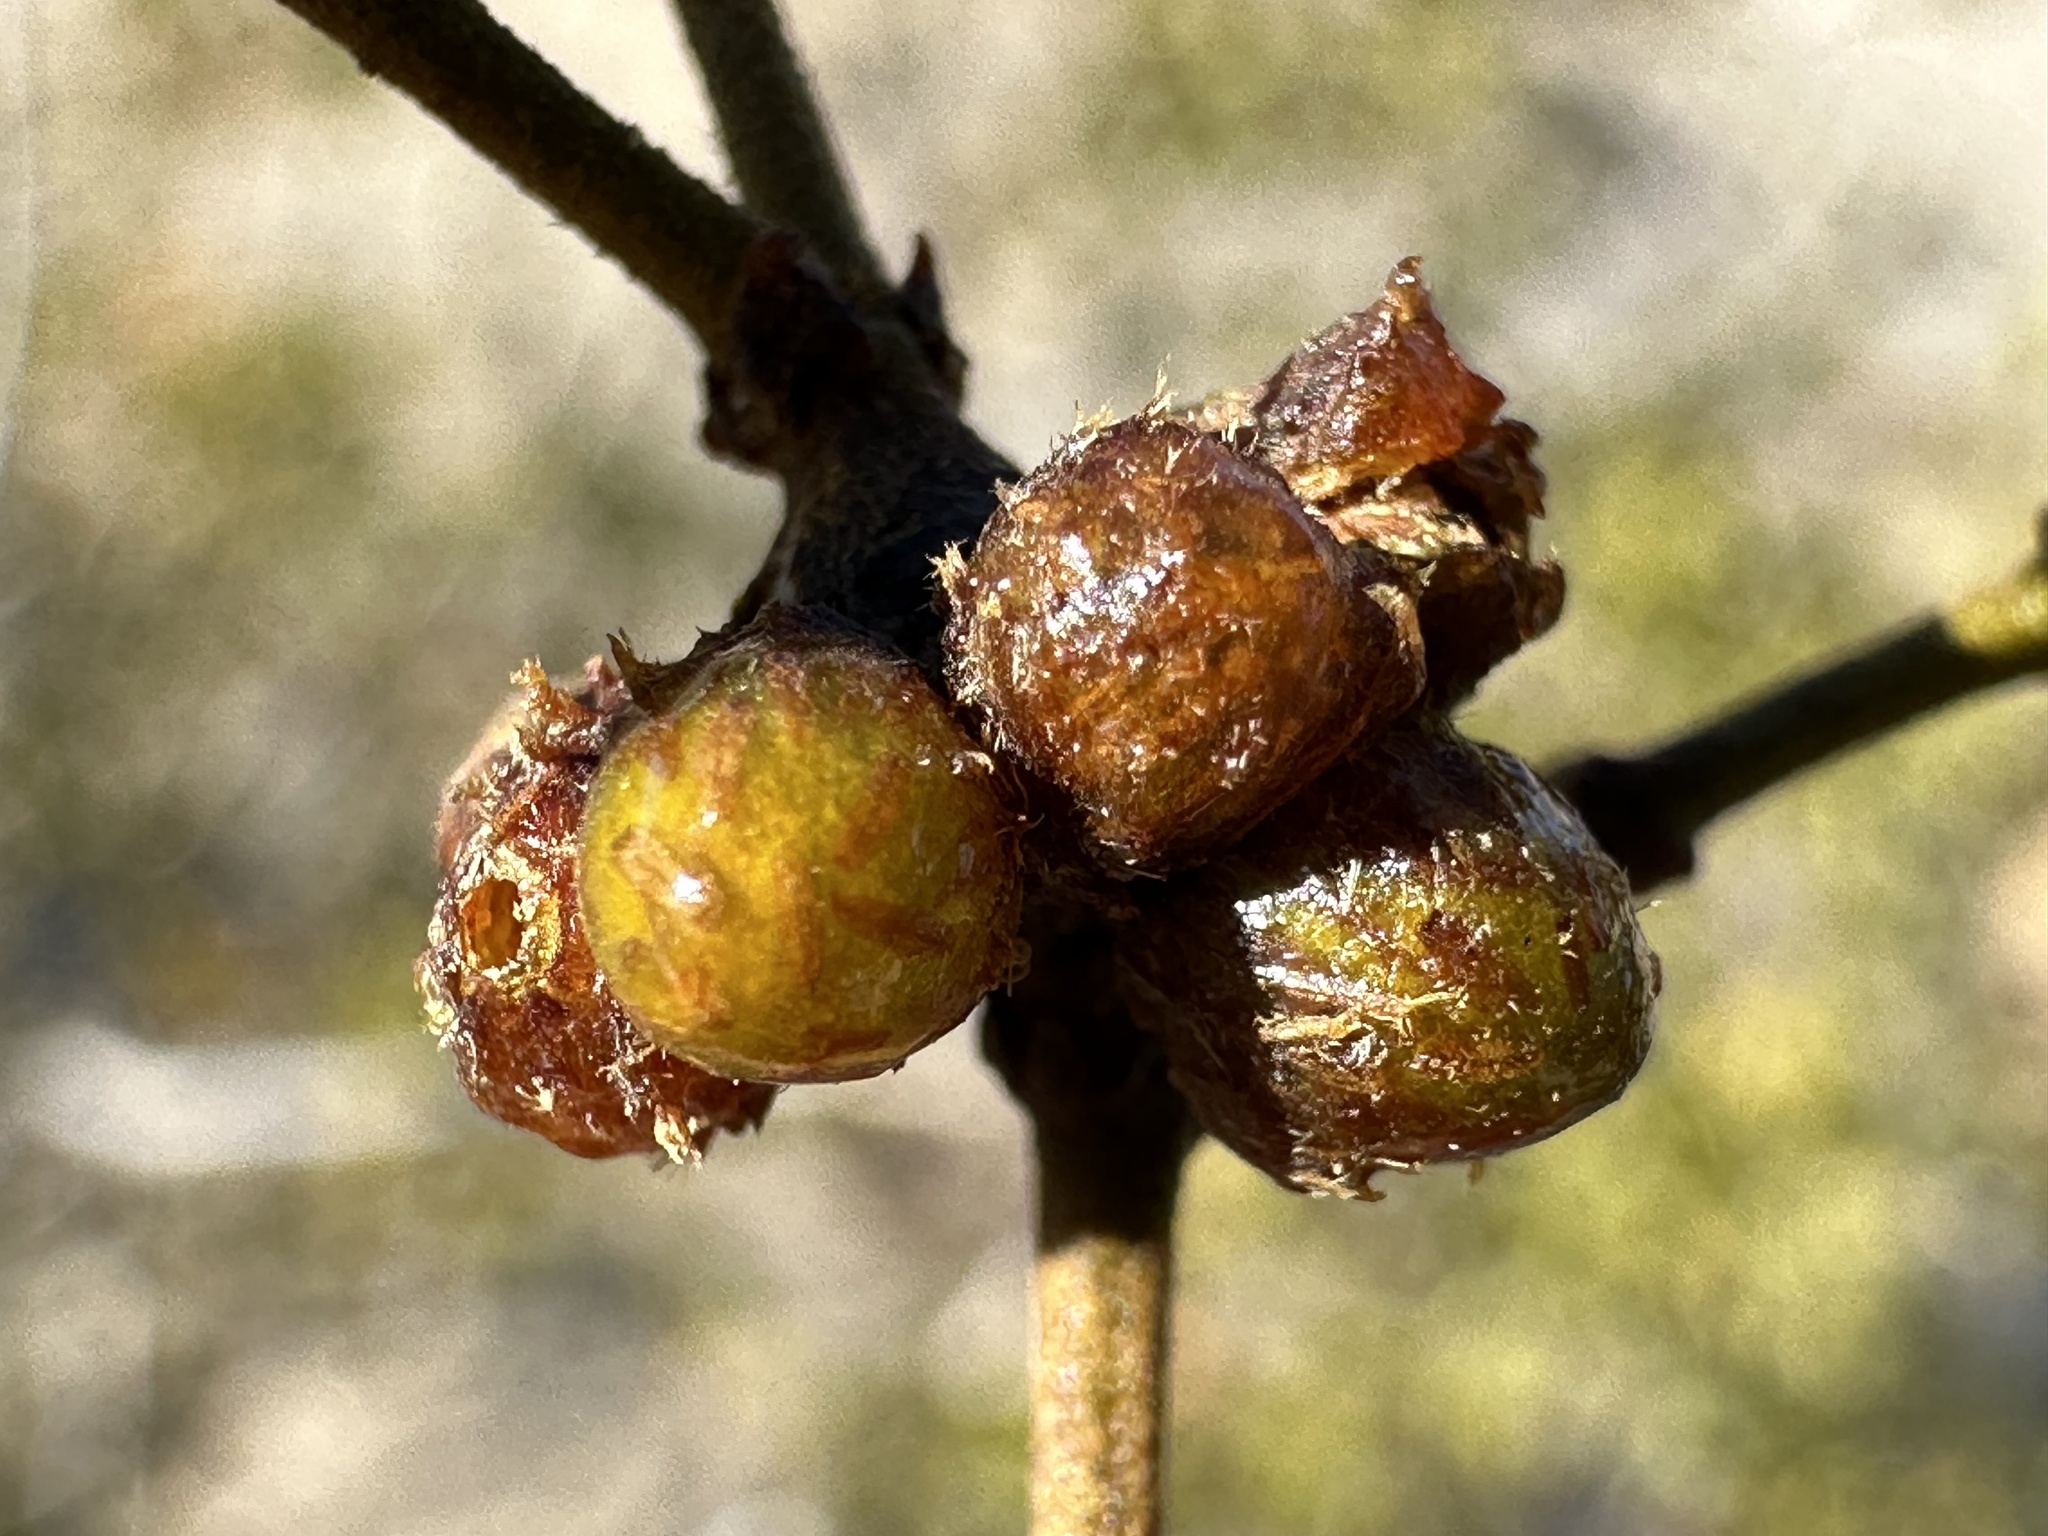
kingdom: Animalia
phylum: Arthropoda
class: Insecta
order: Diptera
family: Cecidomyiidae
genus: Asphondylia
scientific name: Asphondylia resinosa
